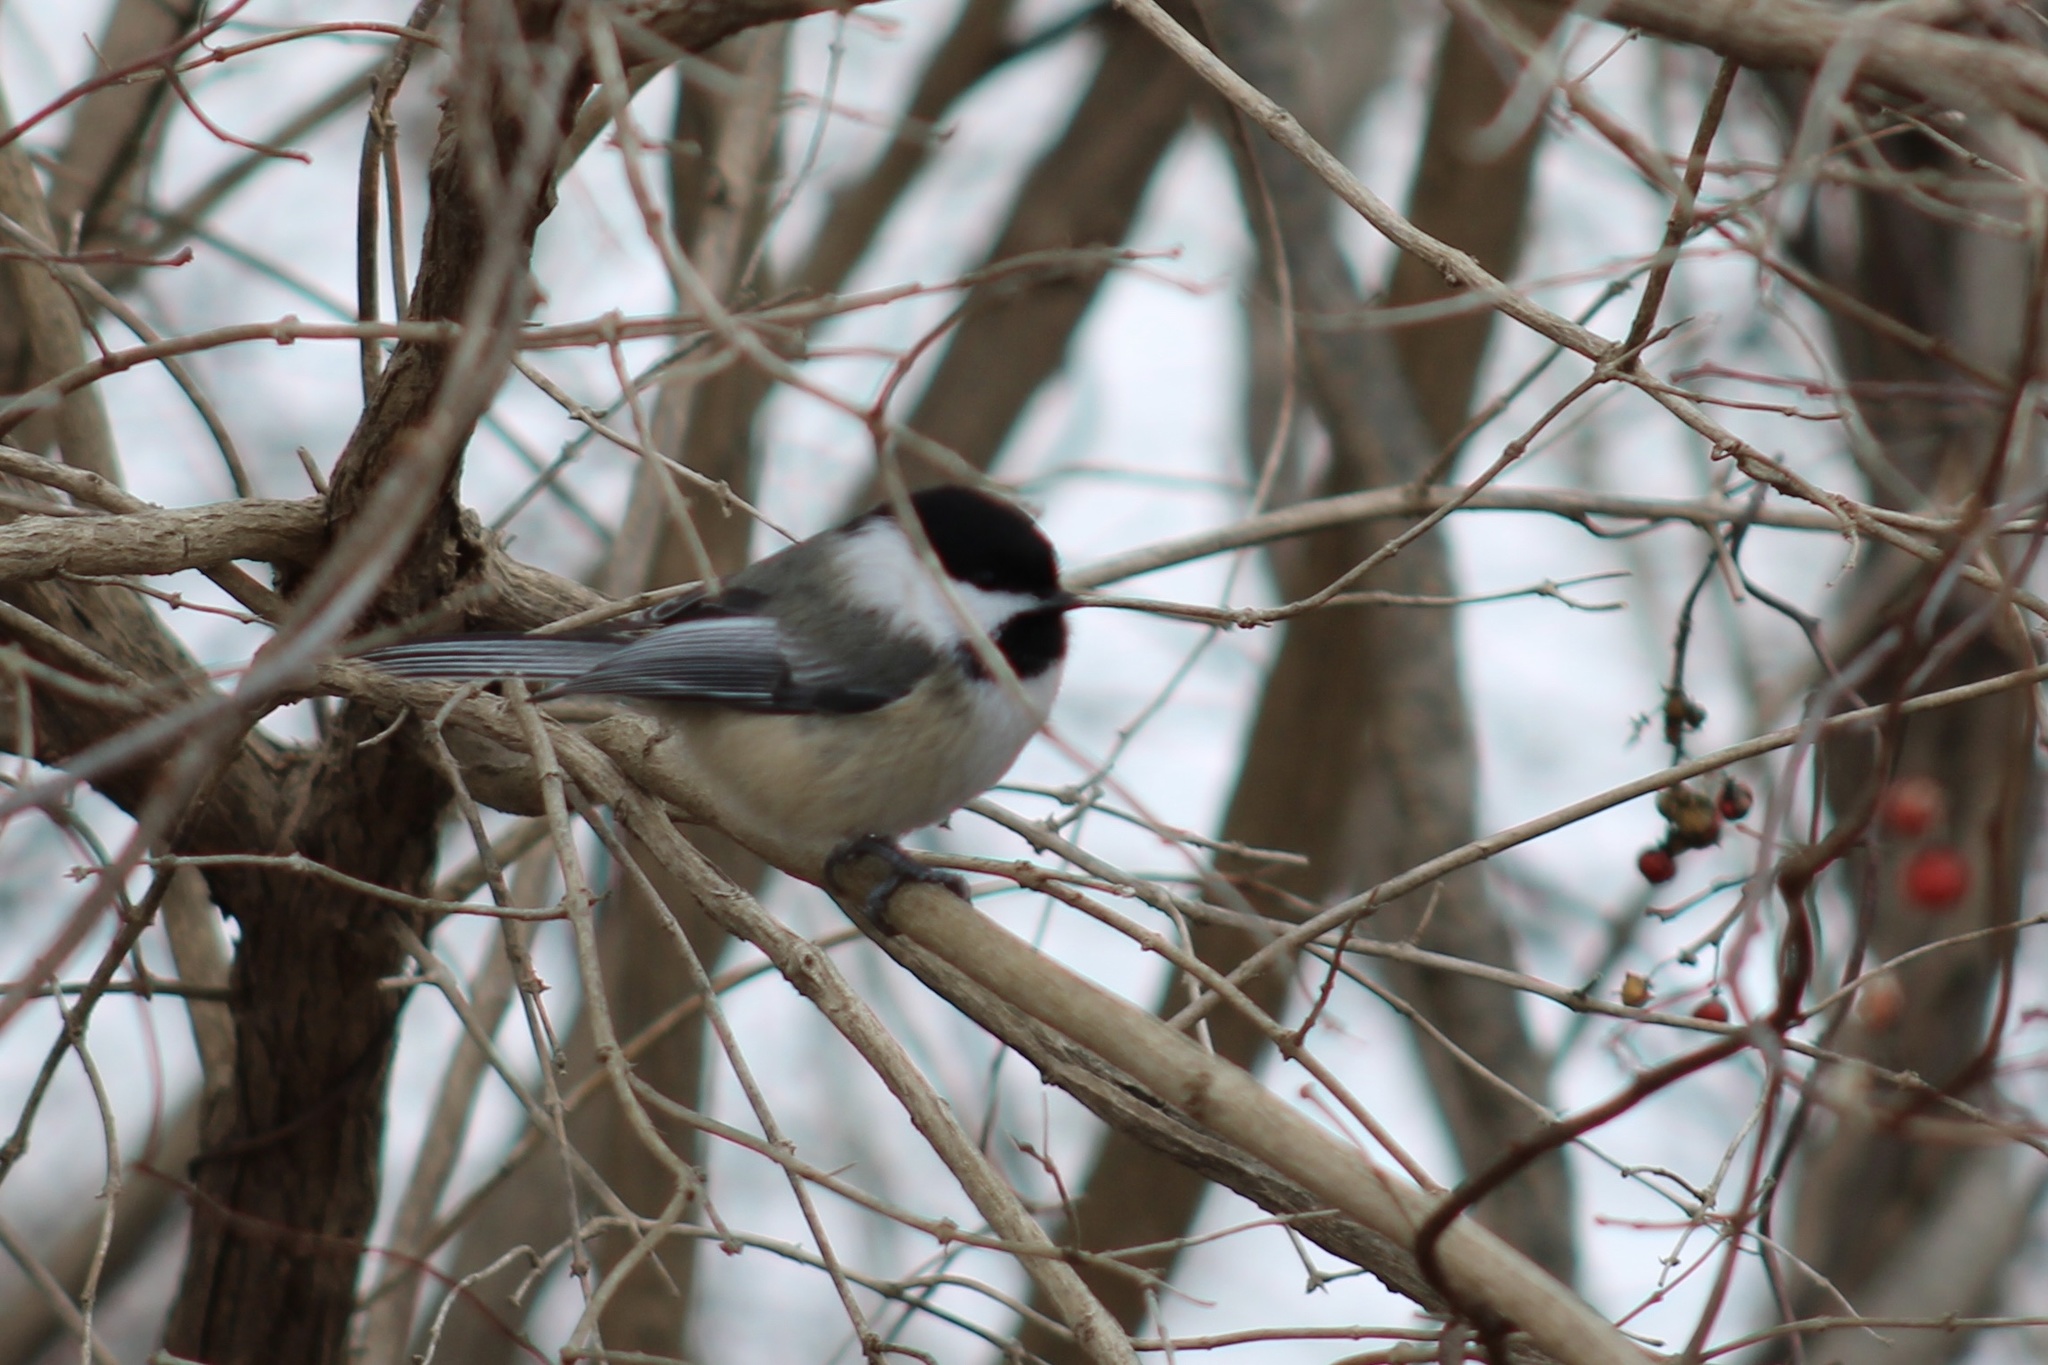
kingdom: Animalia
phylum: Chordata
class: Aves
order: Passeriformes
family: Paridae
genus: Poecile
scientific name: Poecile atricapillus
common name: Black-capped chickadee
